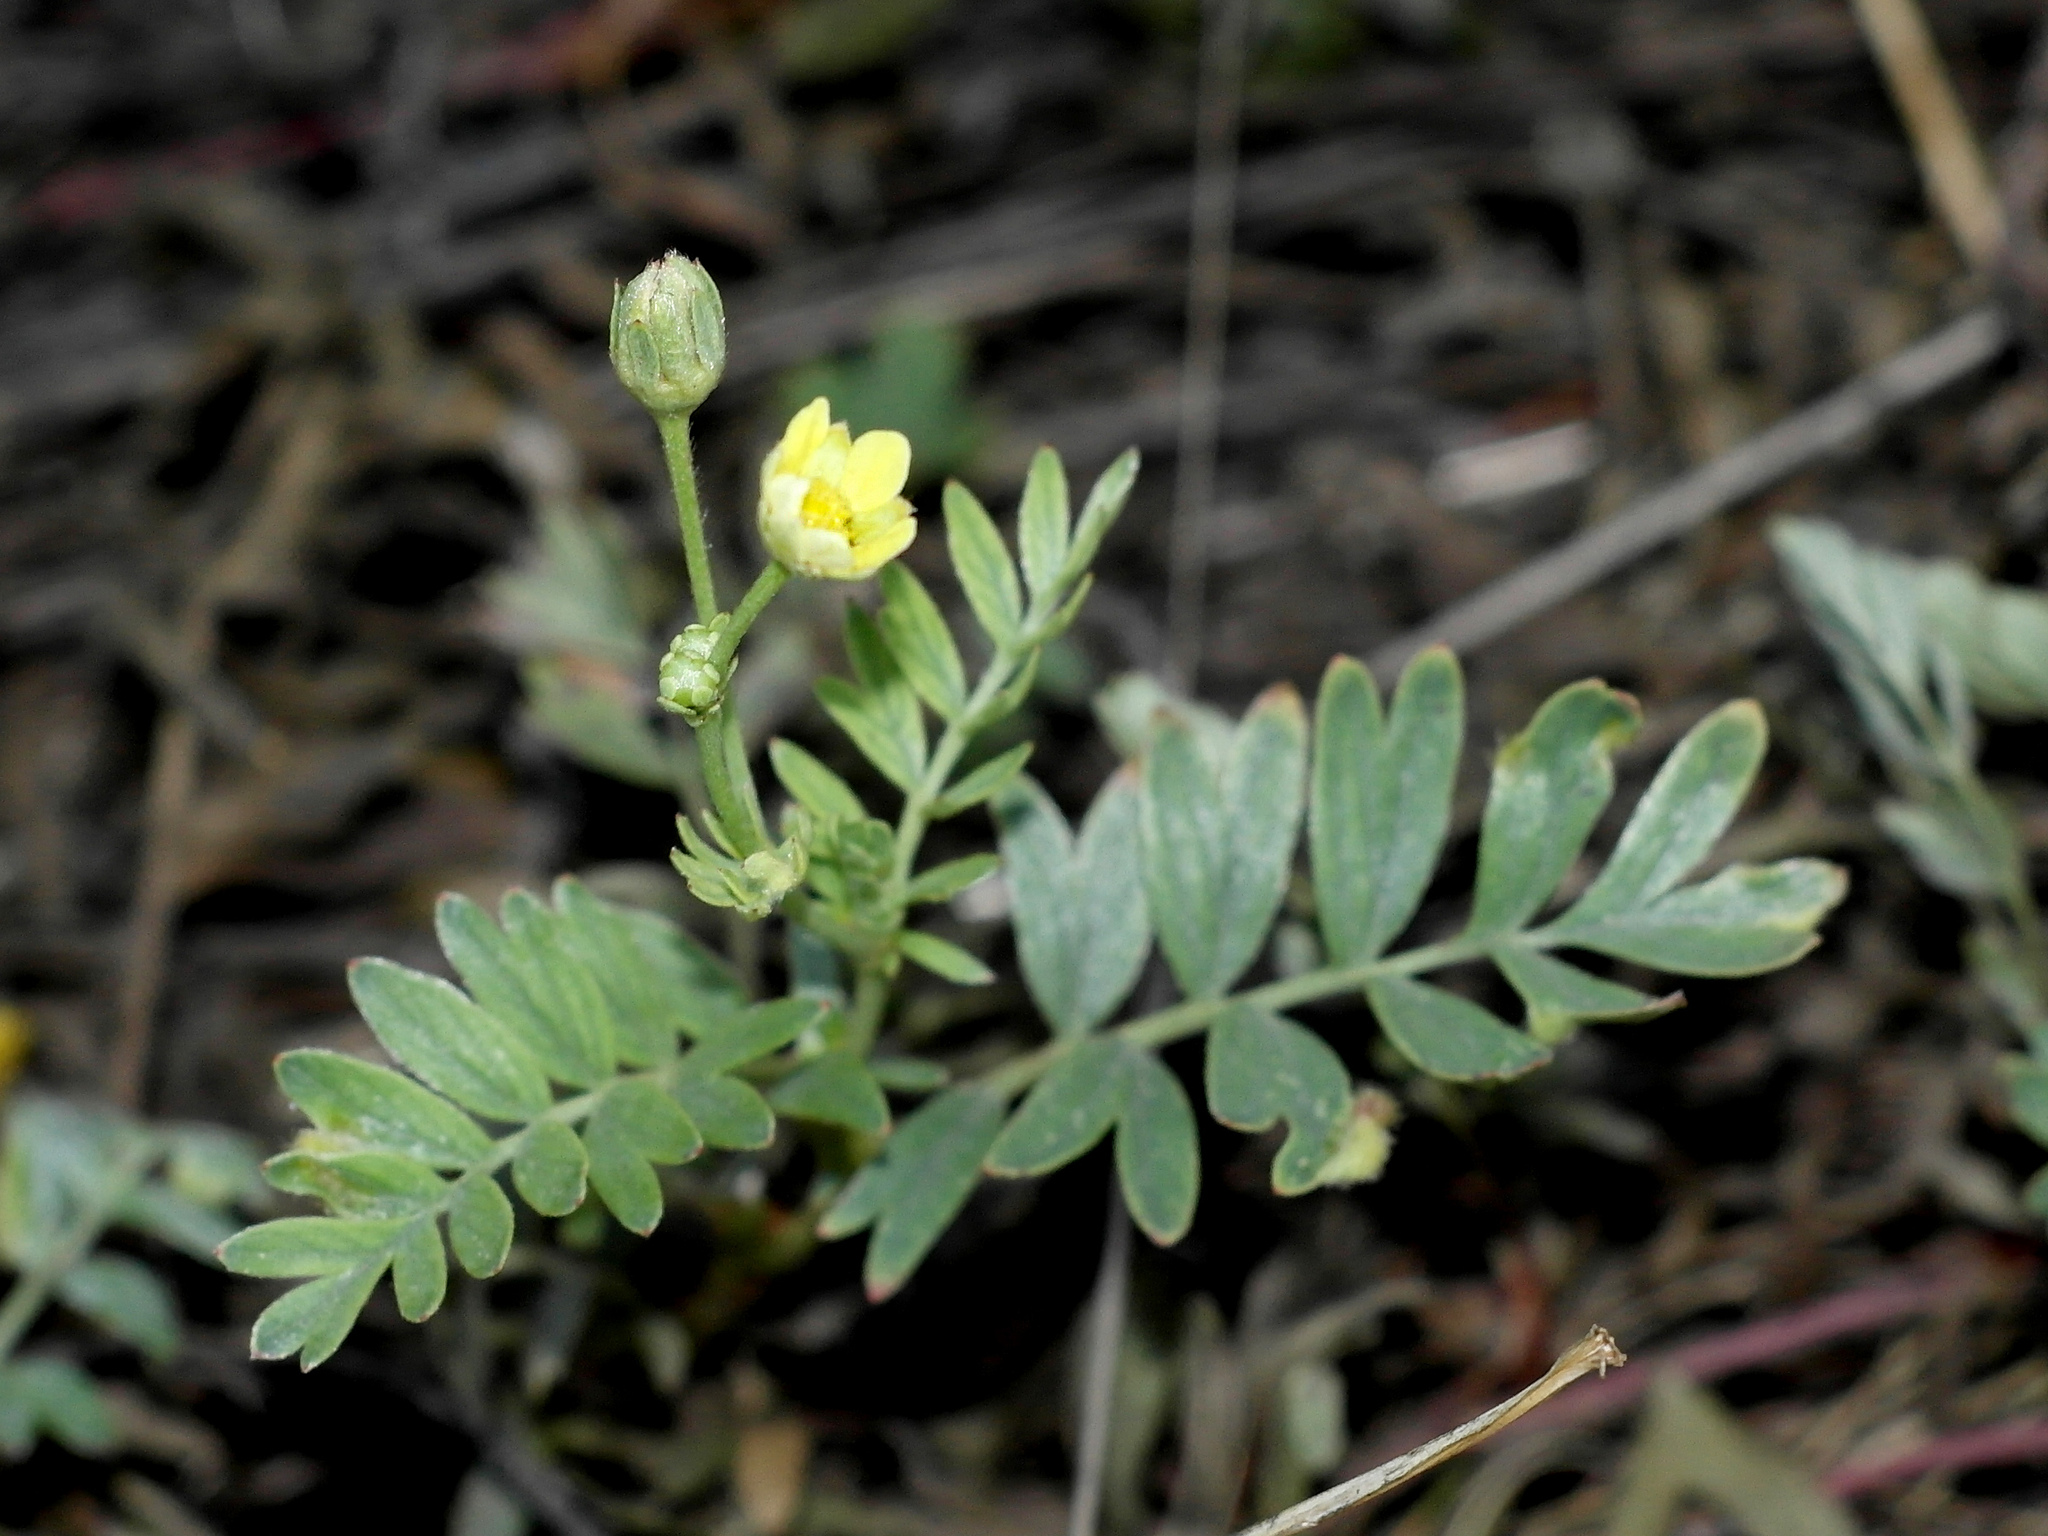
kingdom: Plantae
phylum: Tracheophyta
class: Magnoliopsida
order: Rosales
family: Rosaceae
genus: Sibbaldianthe
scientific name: Sibbaldianthe bifurca
